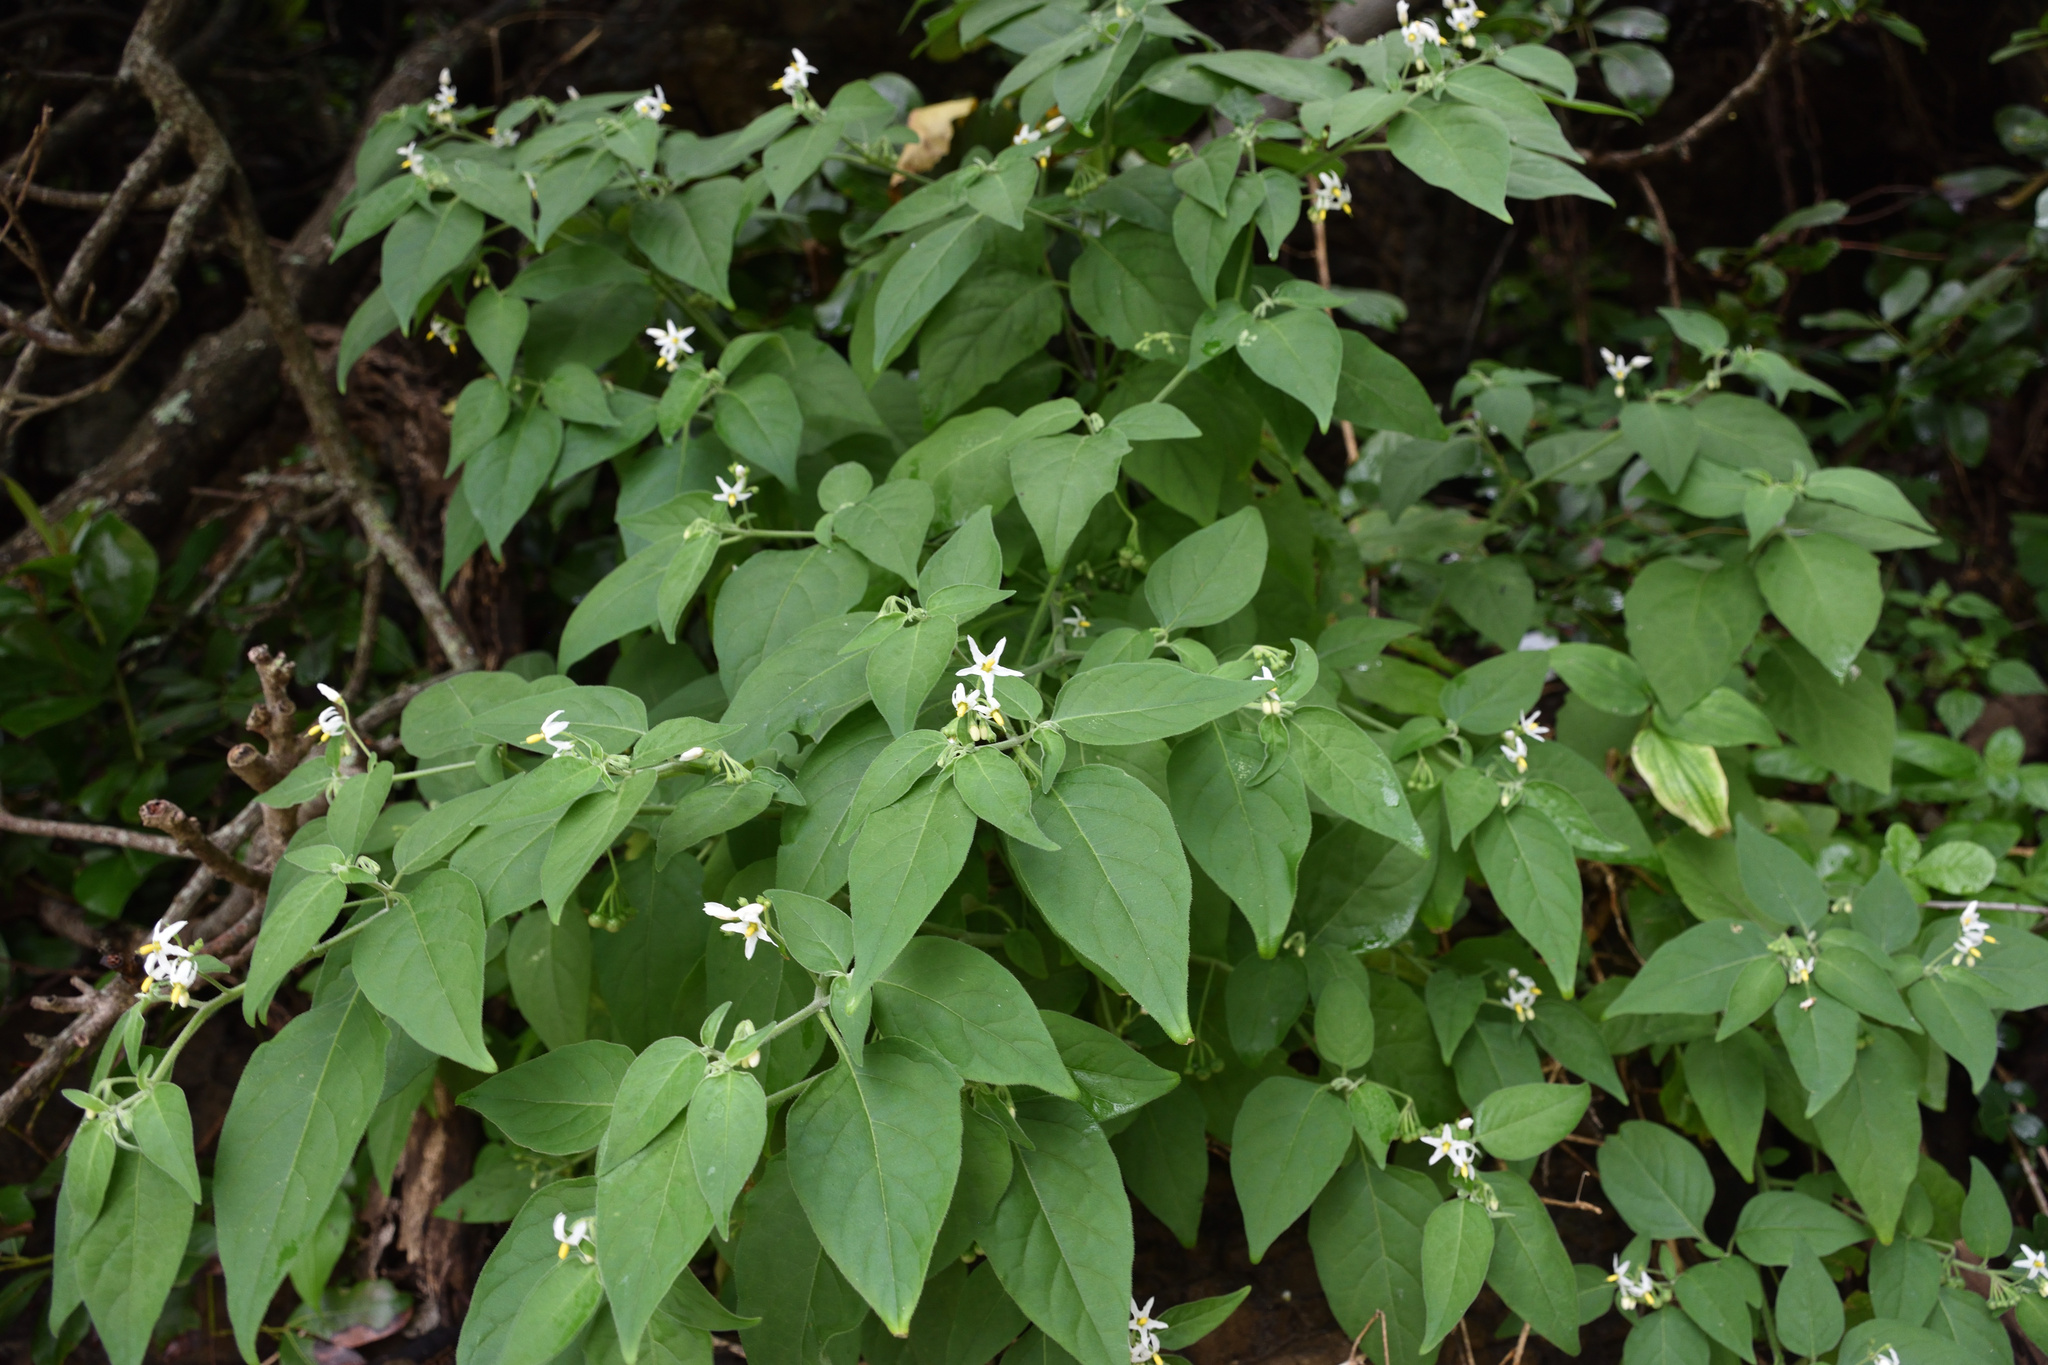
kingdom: Plantae
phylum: Tracheophyta
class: Magnoliopsida
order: Solanales
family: Solanaceae
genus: Solanum
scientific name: Solanum chenopodioides
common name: Tall nightshade
